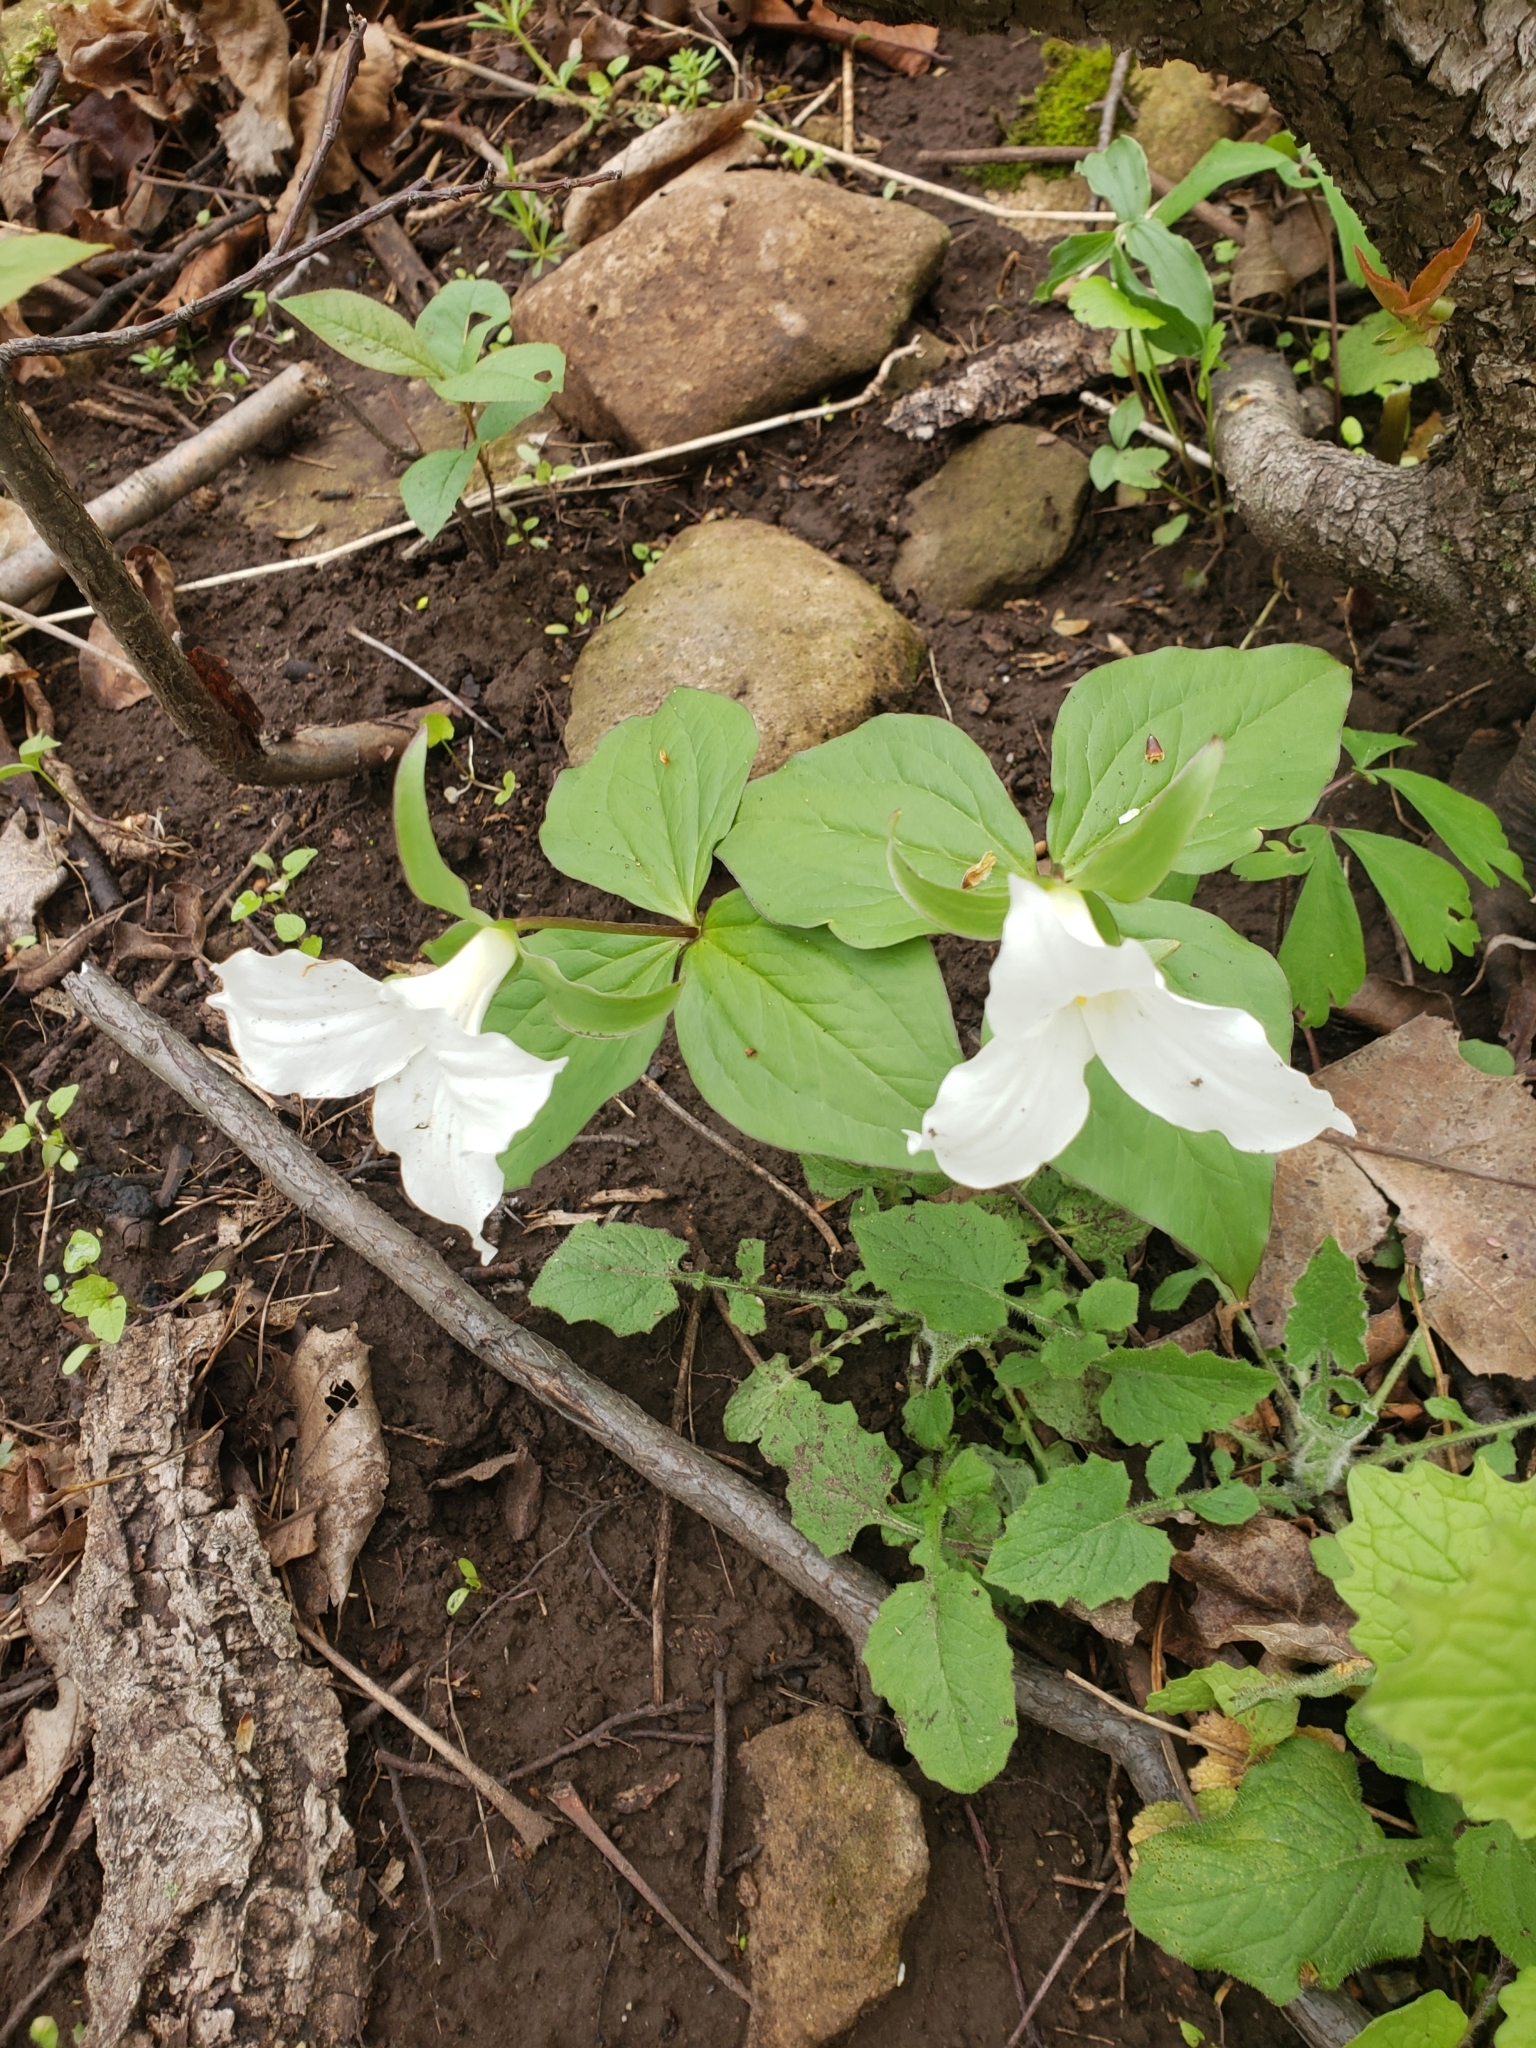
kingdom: Plantae
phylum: Tracheophyta
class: Liliopsida
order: Liliales
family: Melanthiaceae
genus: Trillium
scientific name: Trillium grandiflorum
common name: Great white trillium
